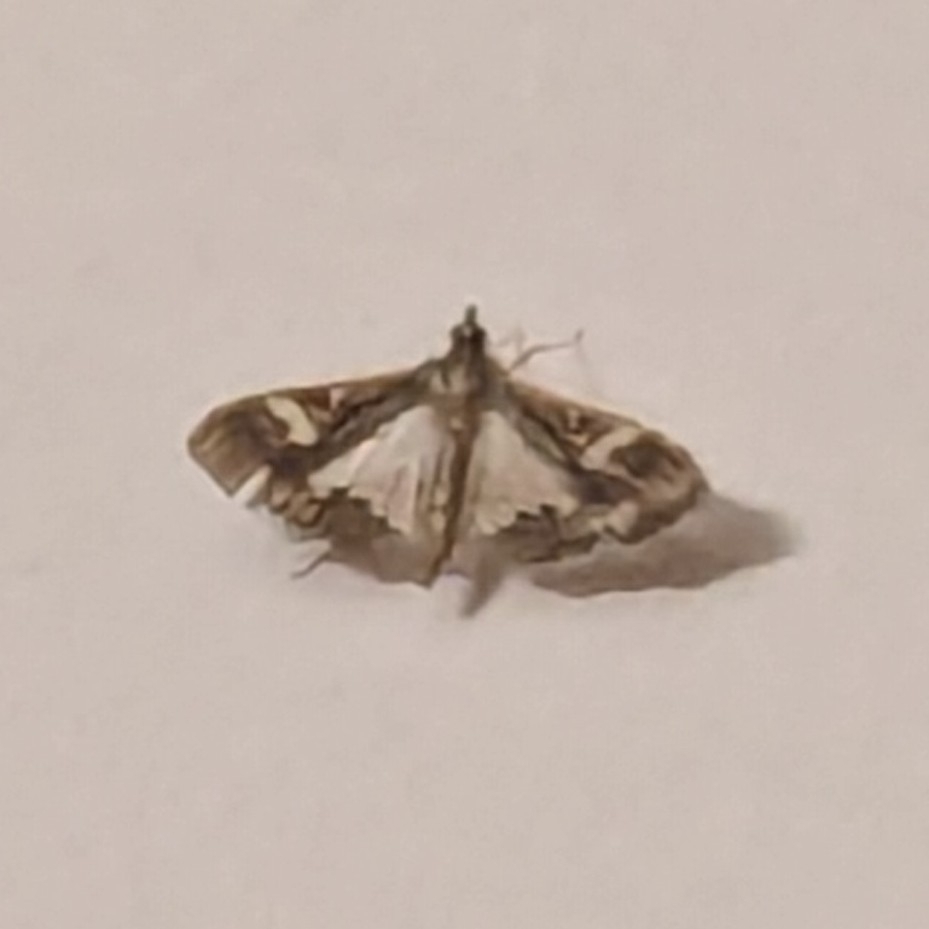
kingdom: Animalia
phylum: Arthropoda
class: Insecta
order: Lepidoptera
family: Crambidae
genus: Maruca
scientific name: Maruca vitrata
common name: Maruca pod borer
